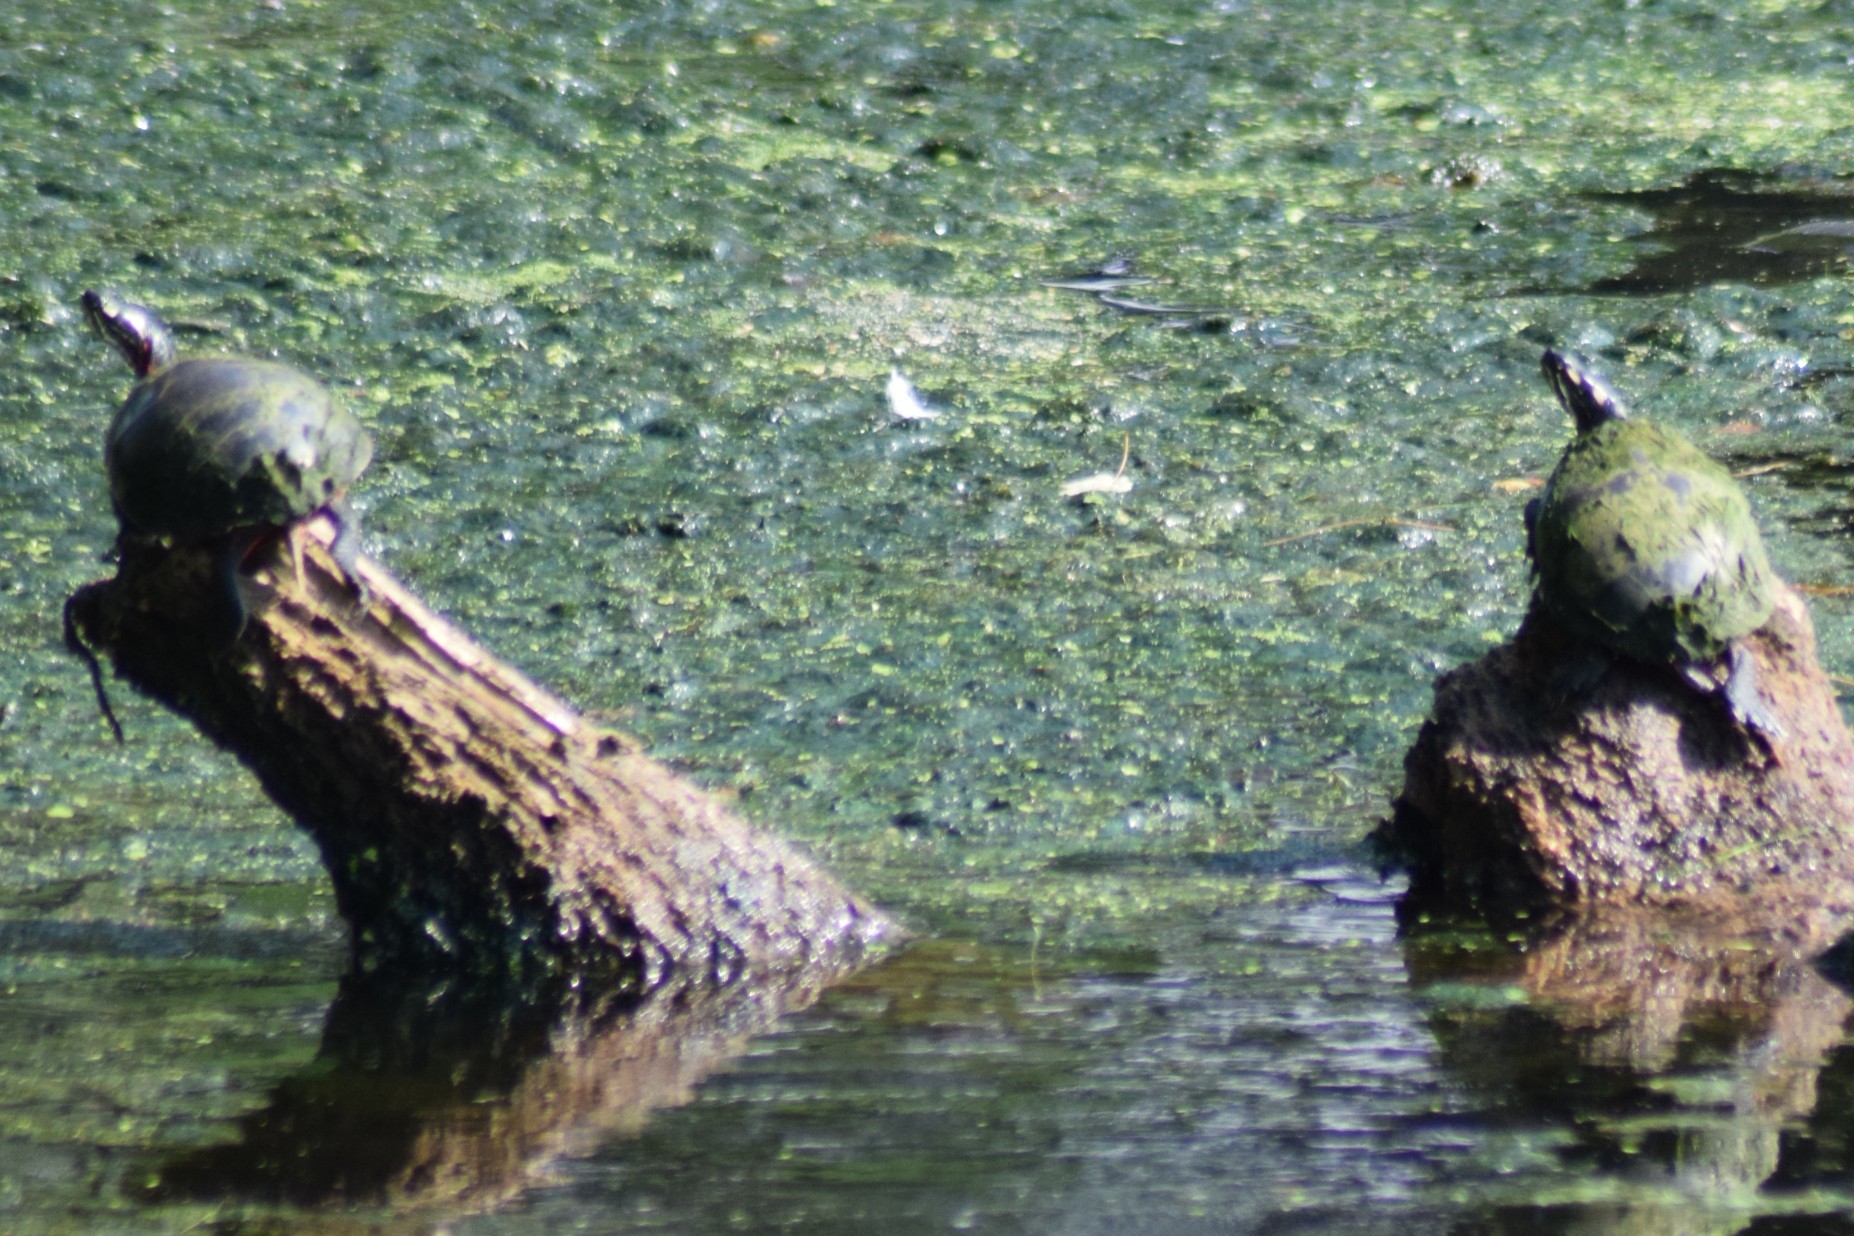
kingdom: Animalia
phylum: Chordata
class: Testudines
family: Emydidae
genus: Chrysemys
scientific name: Chrysemys picta
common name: Painted turtle
